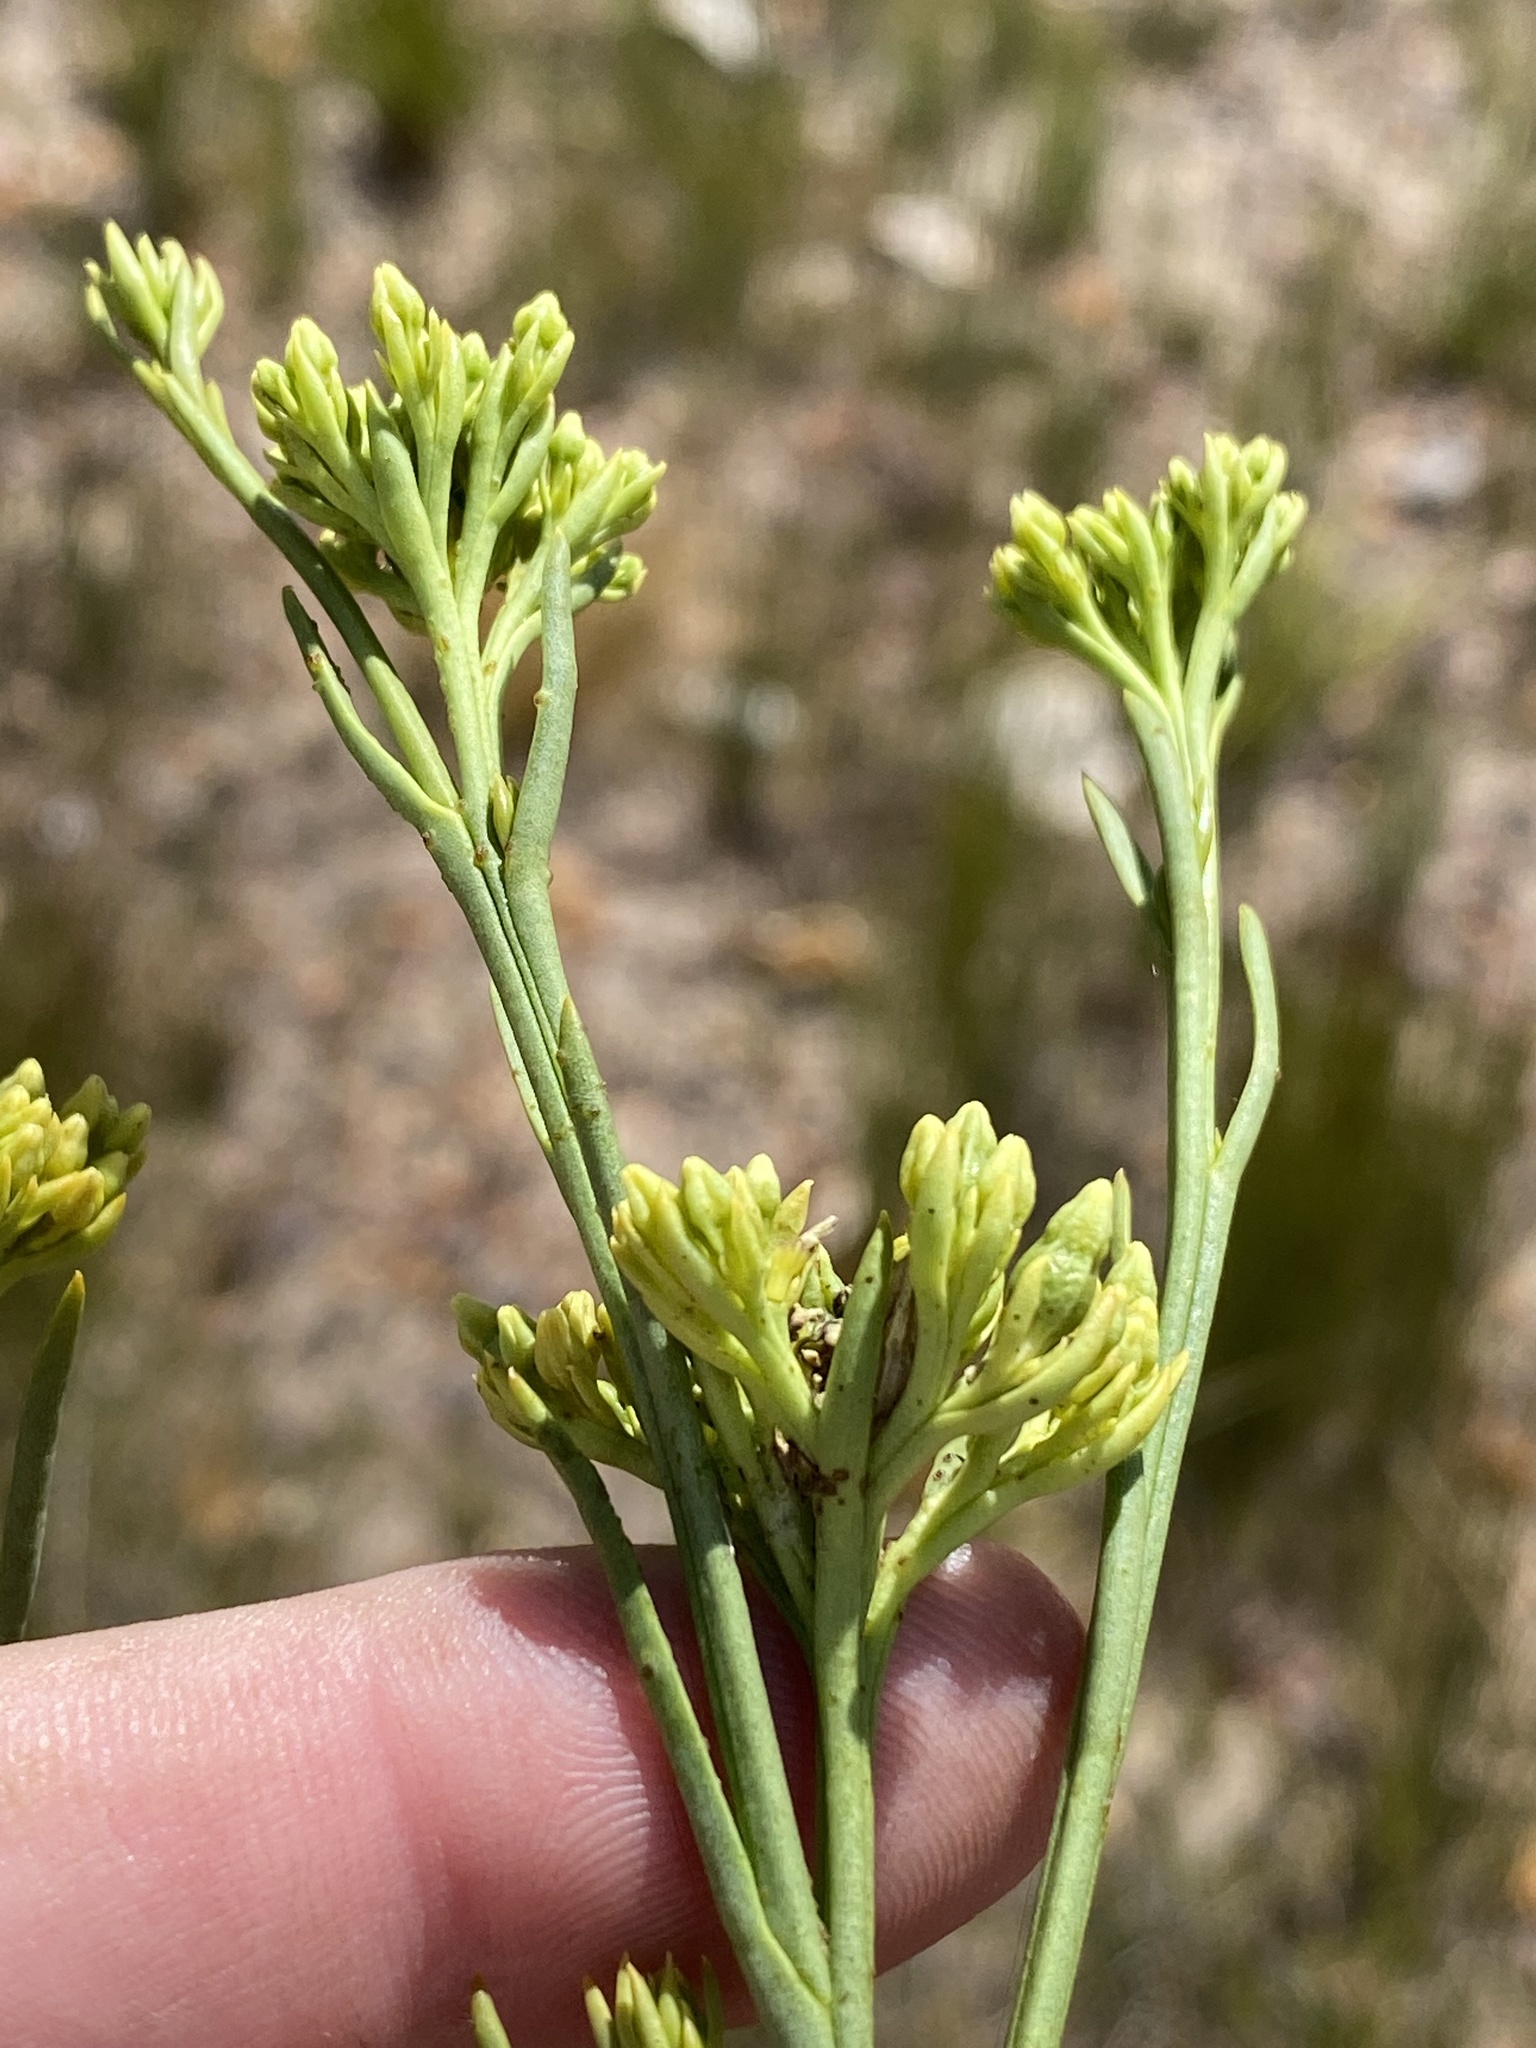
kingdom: Plantae
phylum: Tracheophyta
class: Magnoliopsida
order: Santalales
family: Thesiaceae
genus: Thesium
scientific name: Thesium strictum
